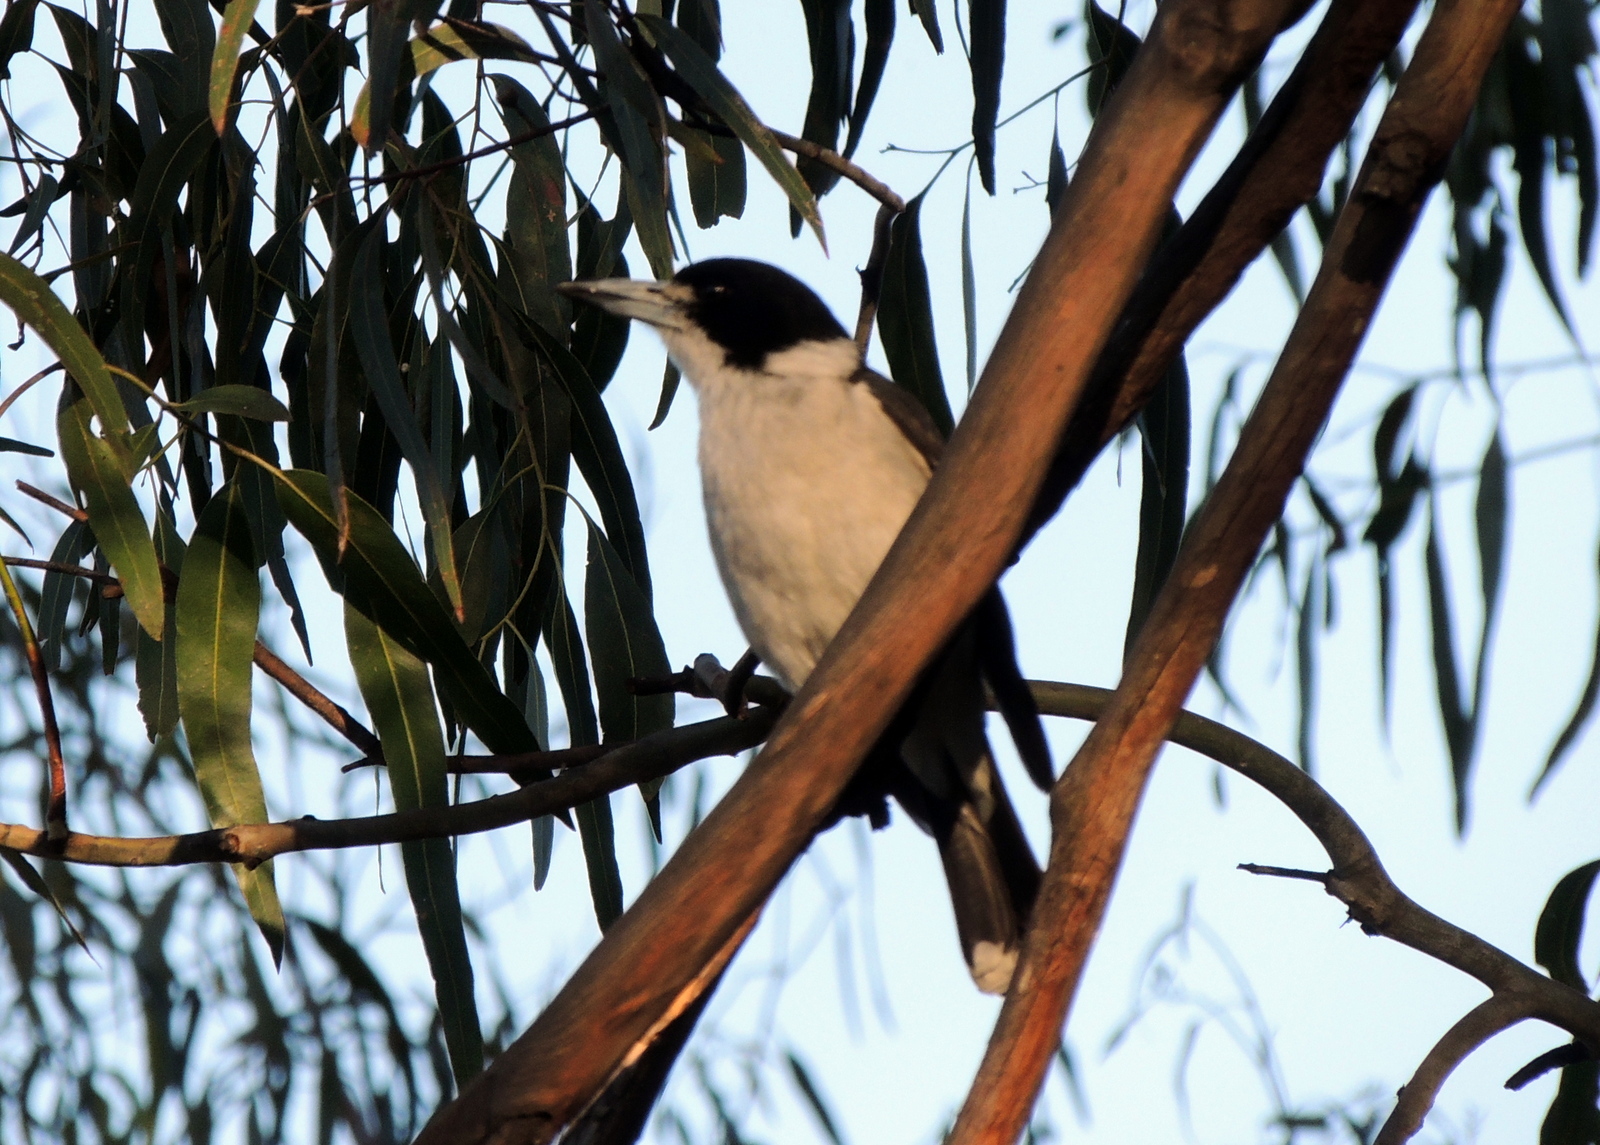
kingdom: Animalia
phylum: Chordata
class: Aves
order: Passeriformes
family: Cracticidae
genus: Cracticus
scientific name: Cracticus torquatus
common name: Grey butcherbird
